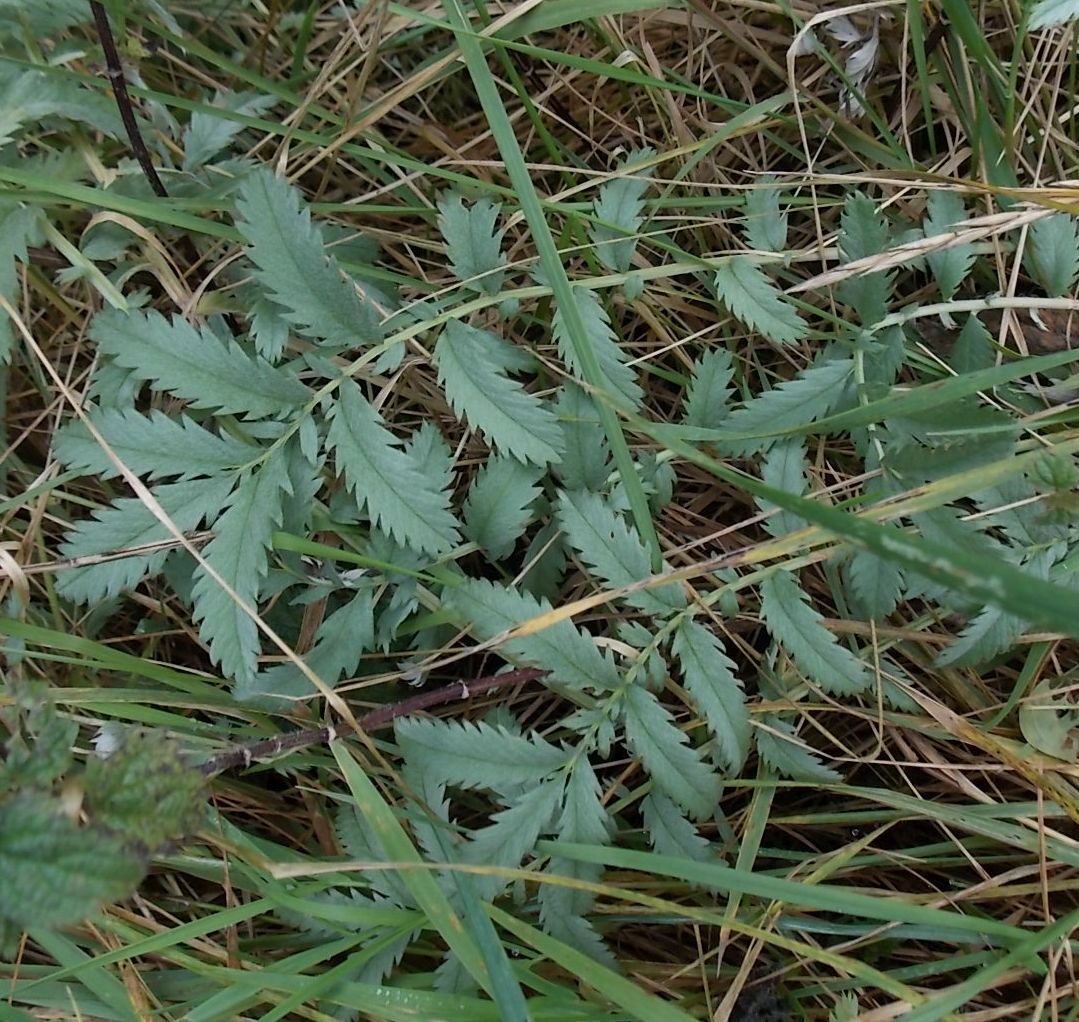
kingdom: Plantae
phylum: Tracheophyta
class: Magnoliopsida
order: Rosales
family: Rosaceae
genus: Argentina
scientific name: Argentina anserina
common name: Common silverweed
